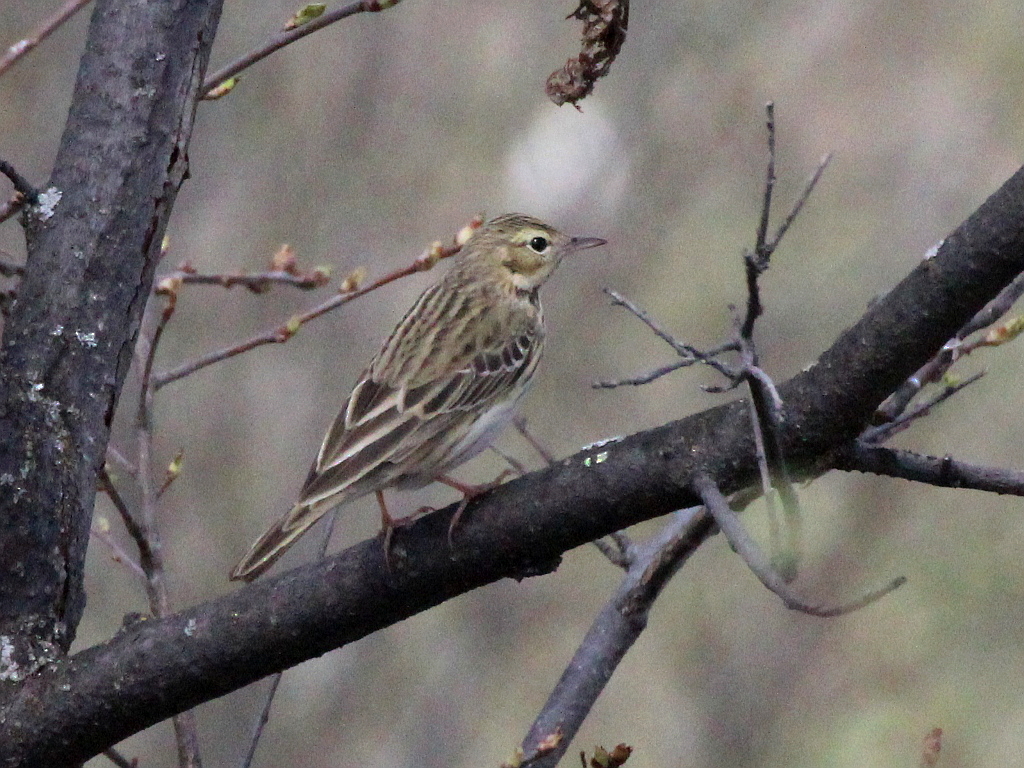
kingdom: Animalia
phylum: Chordata
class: Aves
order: Passeriformes
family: Motacillidae
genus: Anthus
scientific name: Anthus trivialis
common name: Tree pipit
